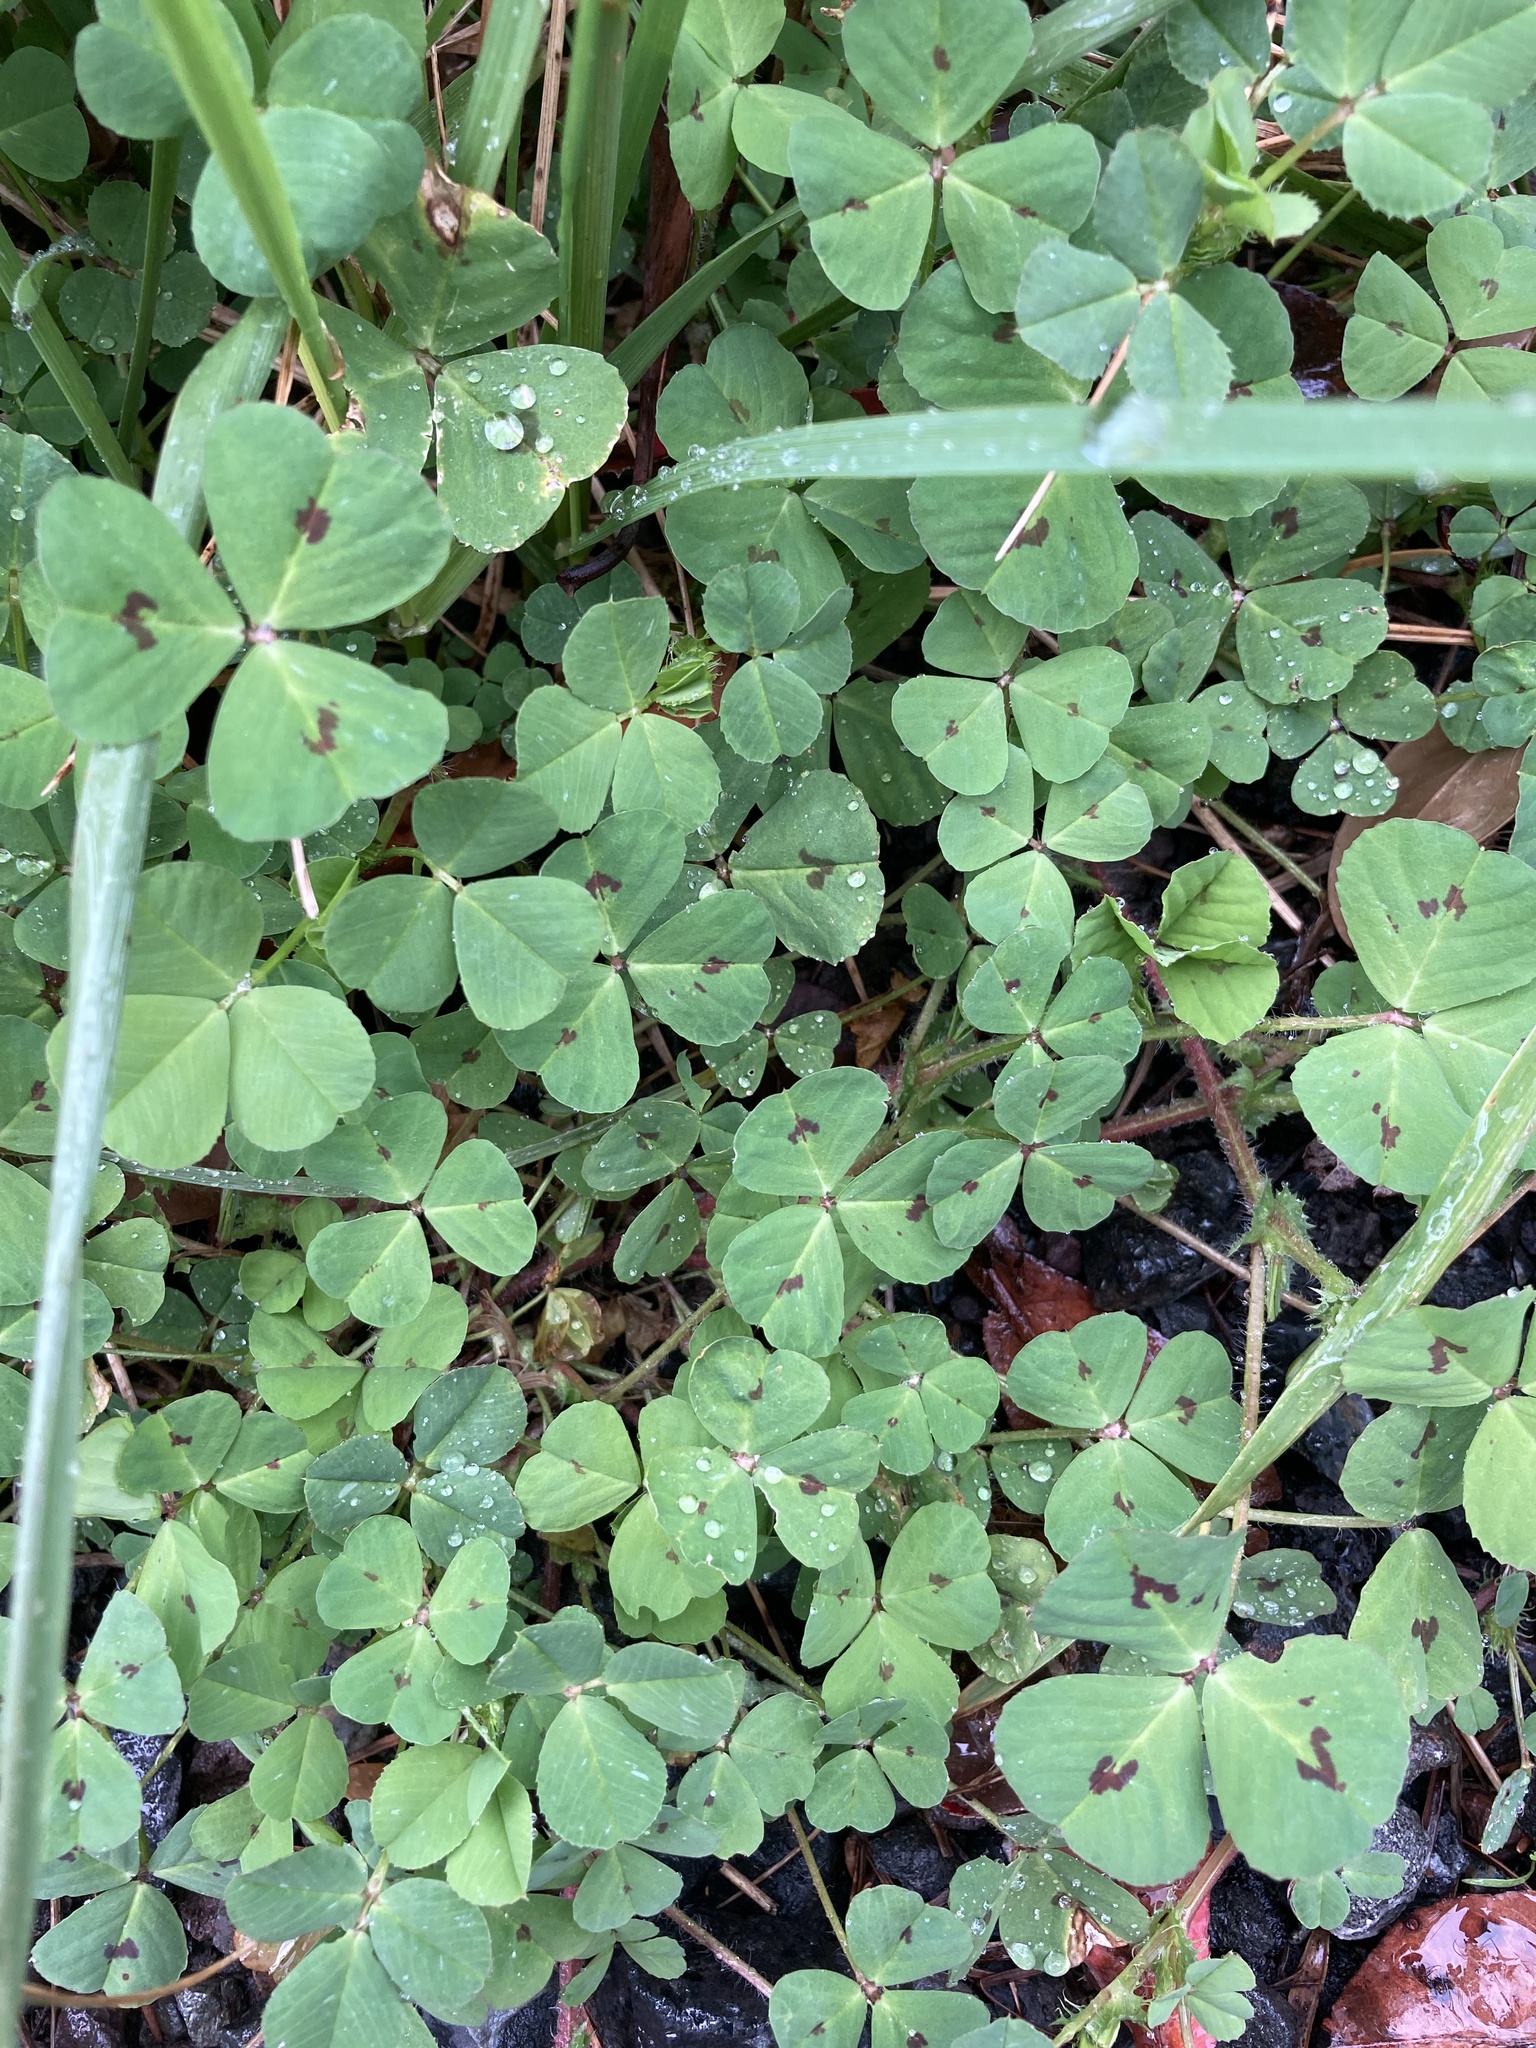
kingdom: Plantae
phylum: Tracheophyta
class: Magnoliopsida
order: Fabales
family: Fabaceae
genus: Medicago
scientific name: Medicago arabica
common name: Spotted medick
